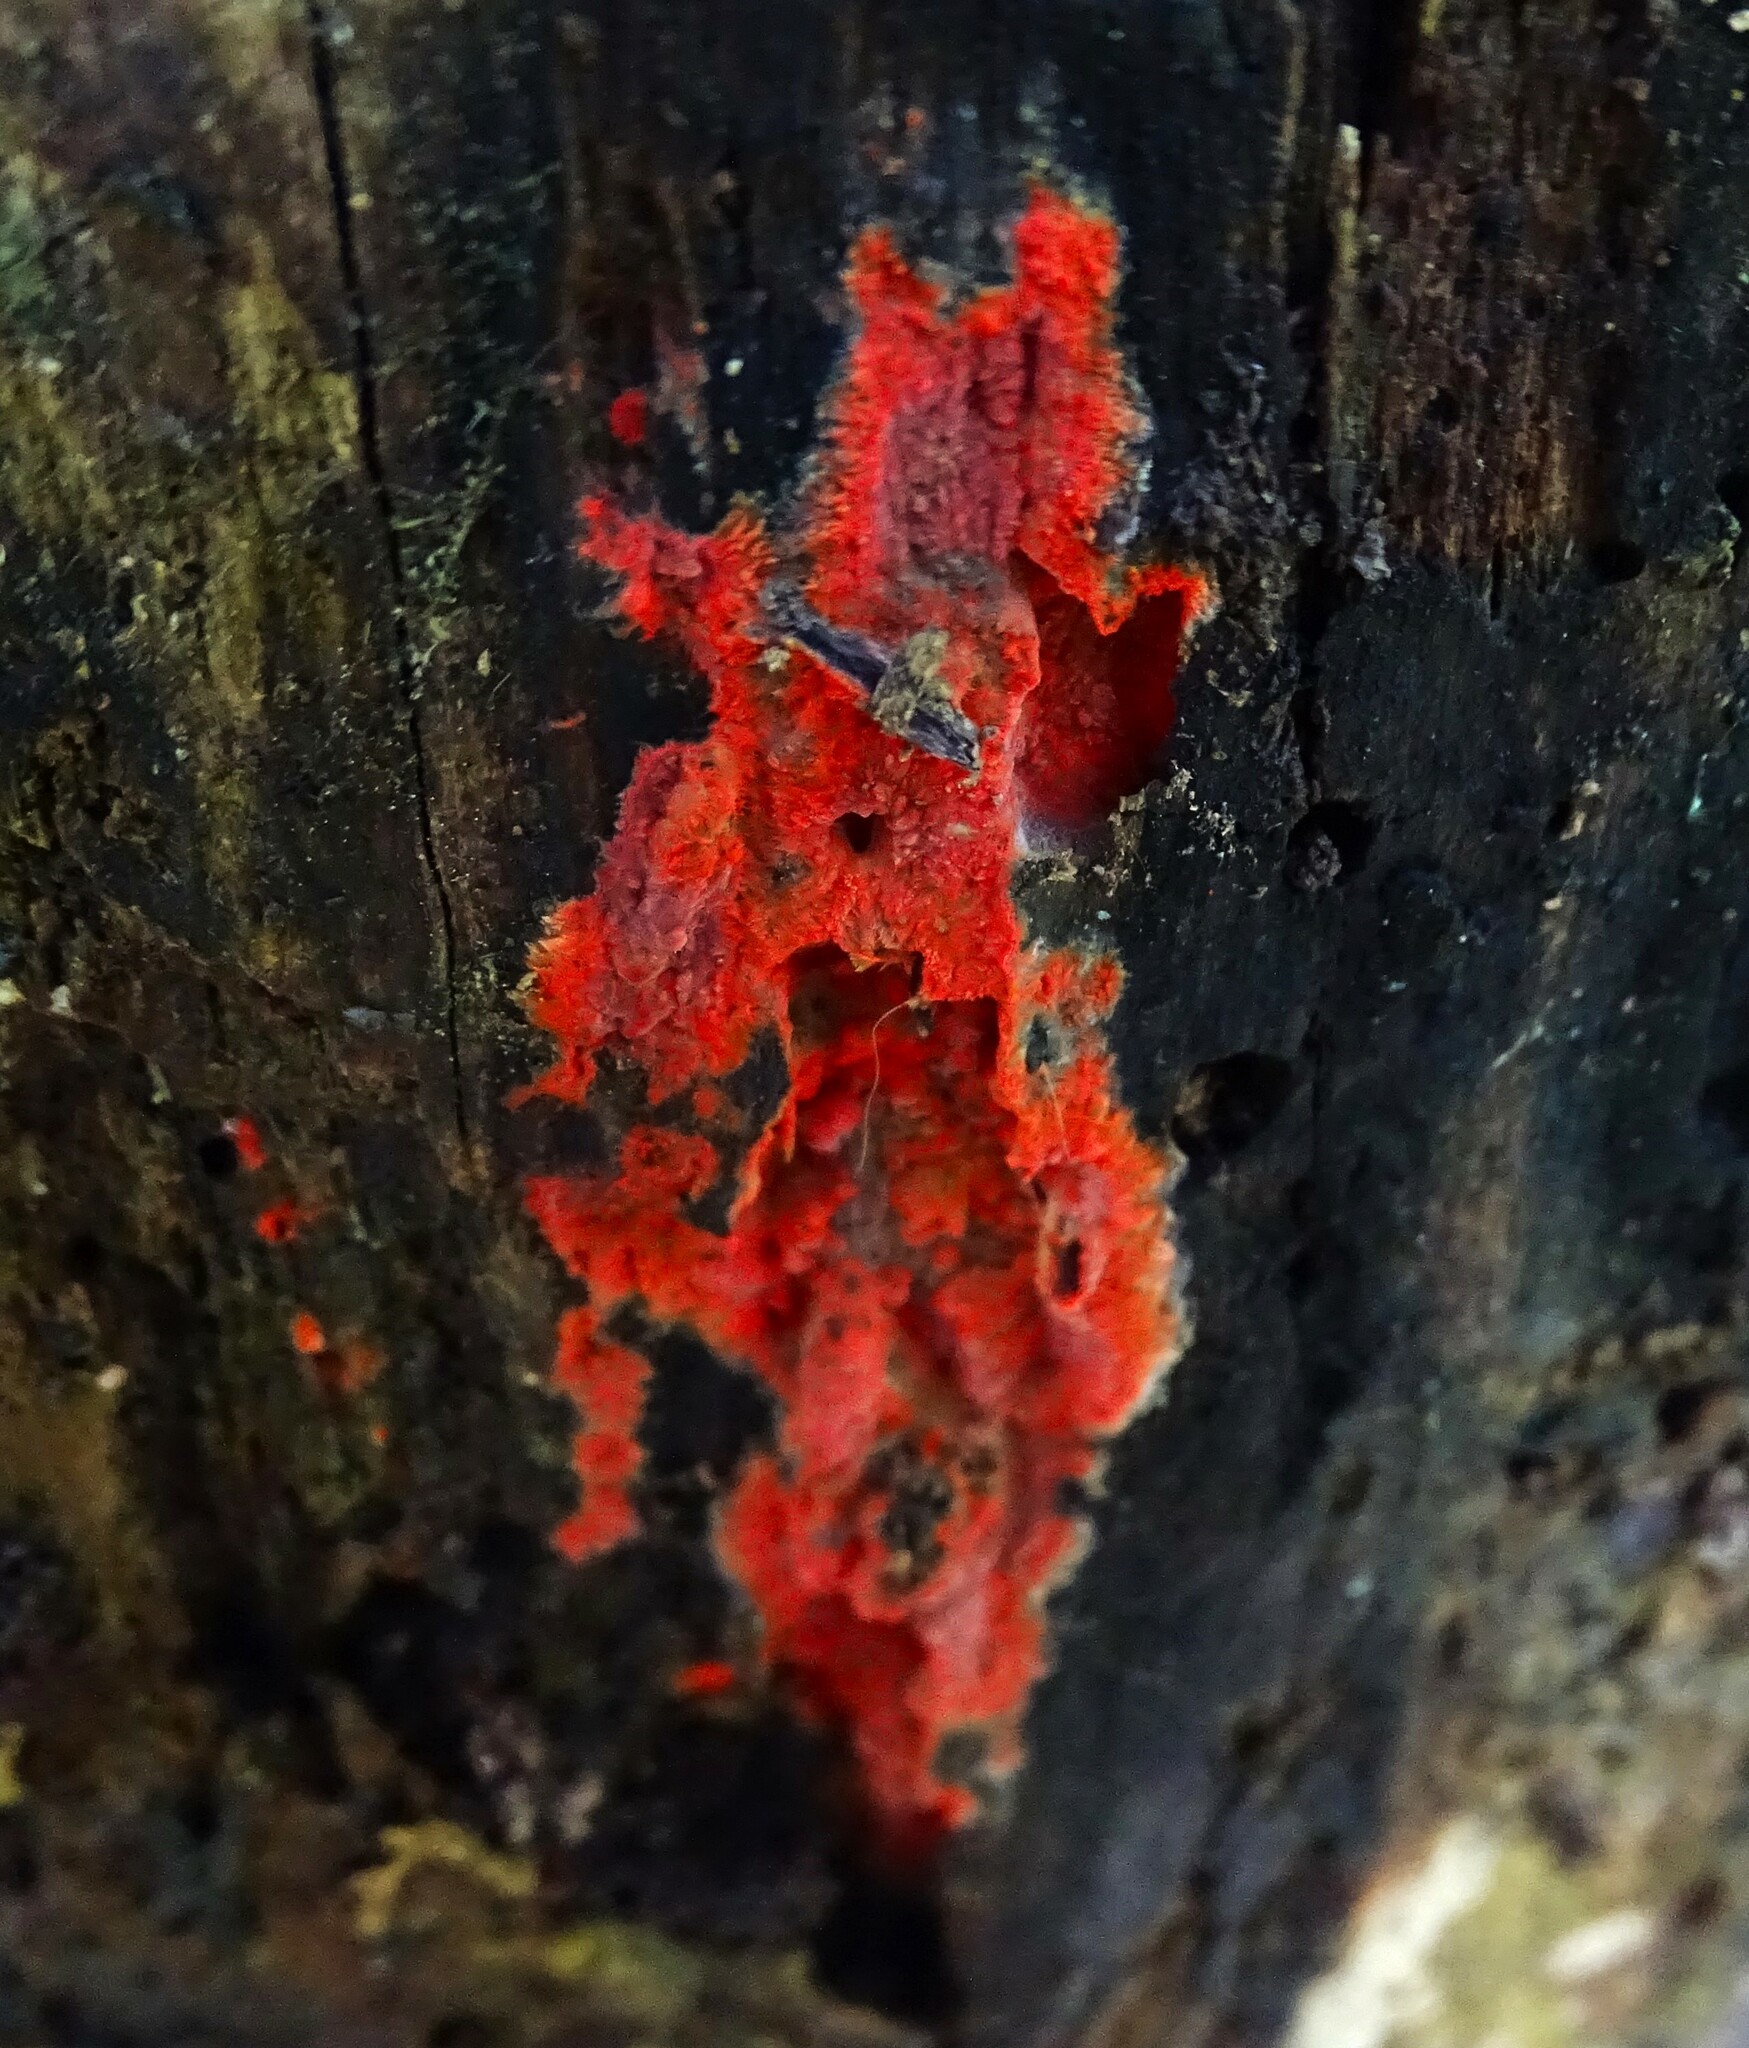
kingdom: Fungi
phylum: Basidiomycota
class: Agaricomycetes
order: Polyporales
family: Meruliaceae
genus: Phlebia
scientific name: Phlebia coccineofulva
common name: Scarlet waxcrust
